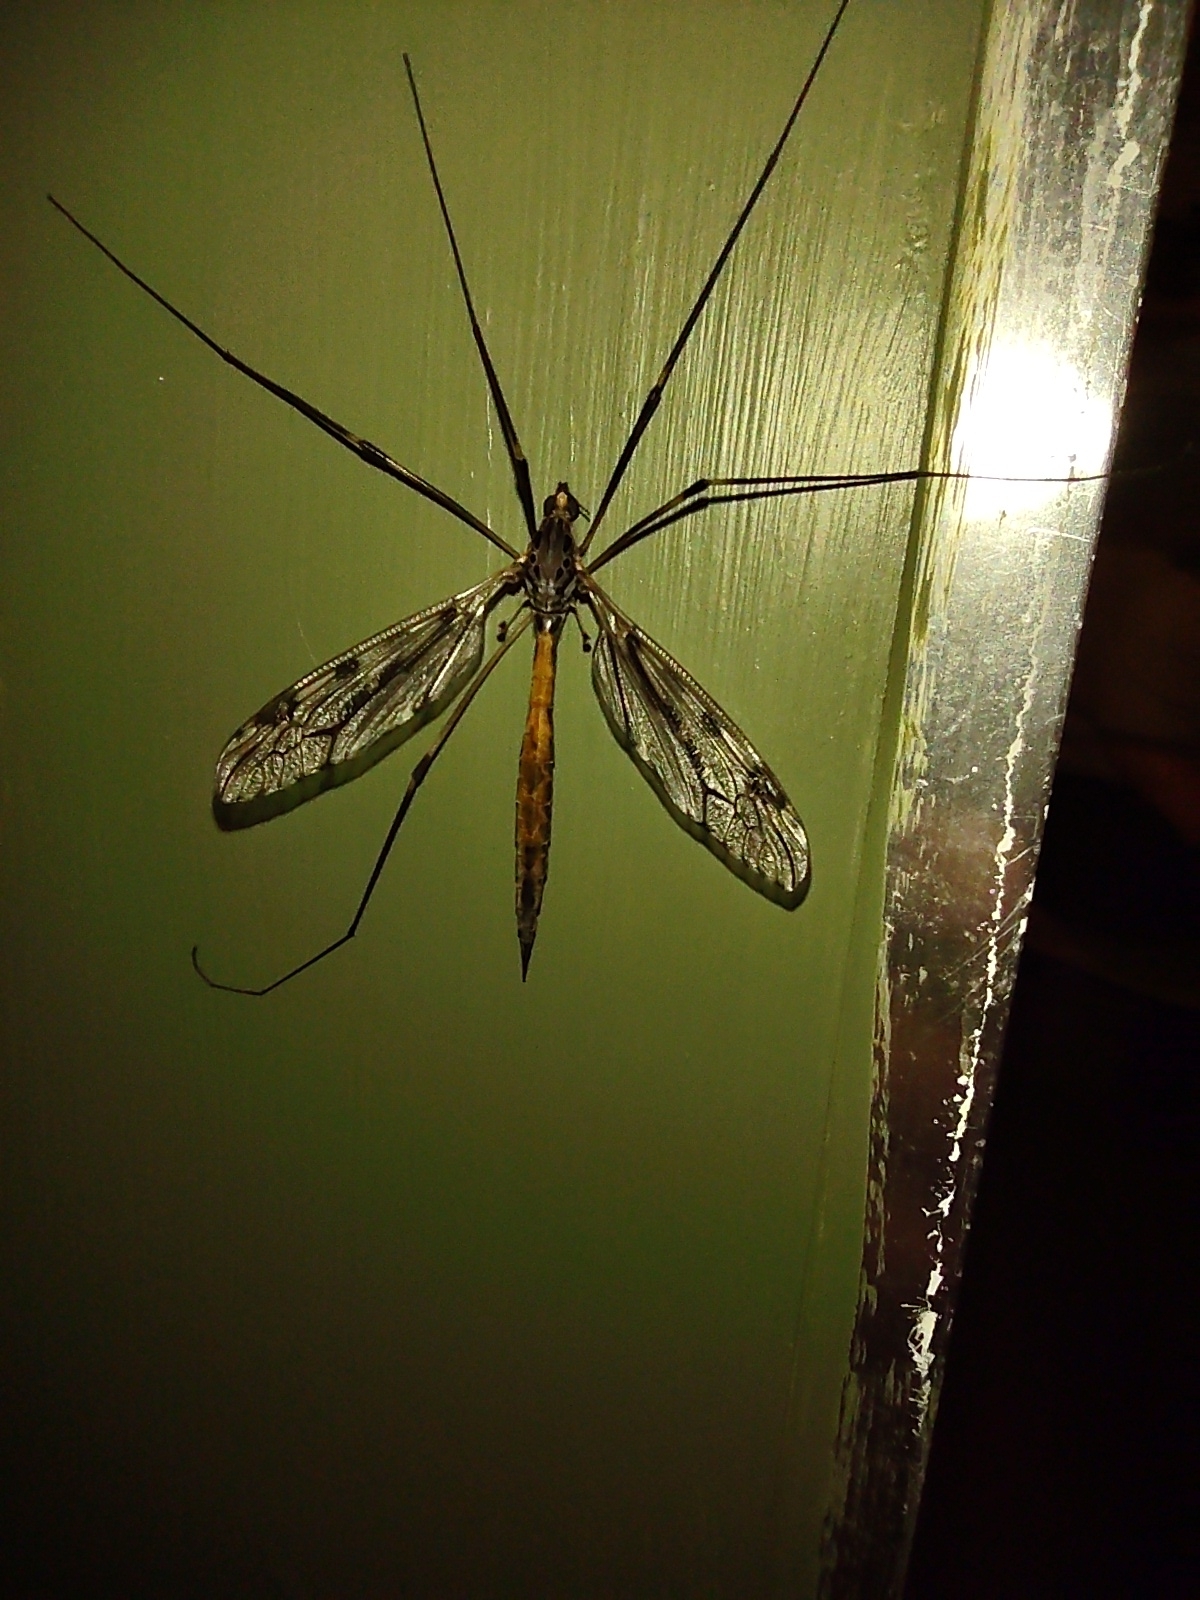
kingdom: Animalia
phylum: Arthropoda
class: Insecta
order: Diptera
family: Tipulidae
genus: Tipula
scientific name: Tipula abdominalis
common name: Giant crane fly
